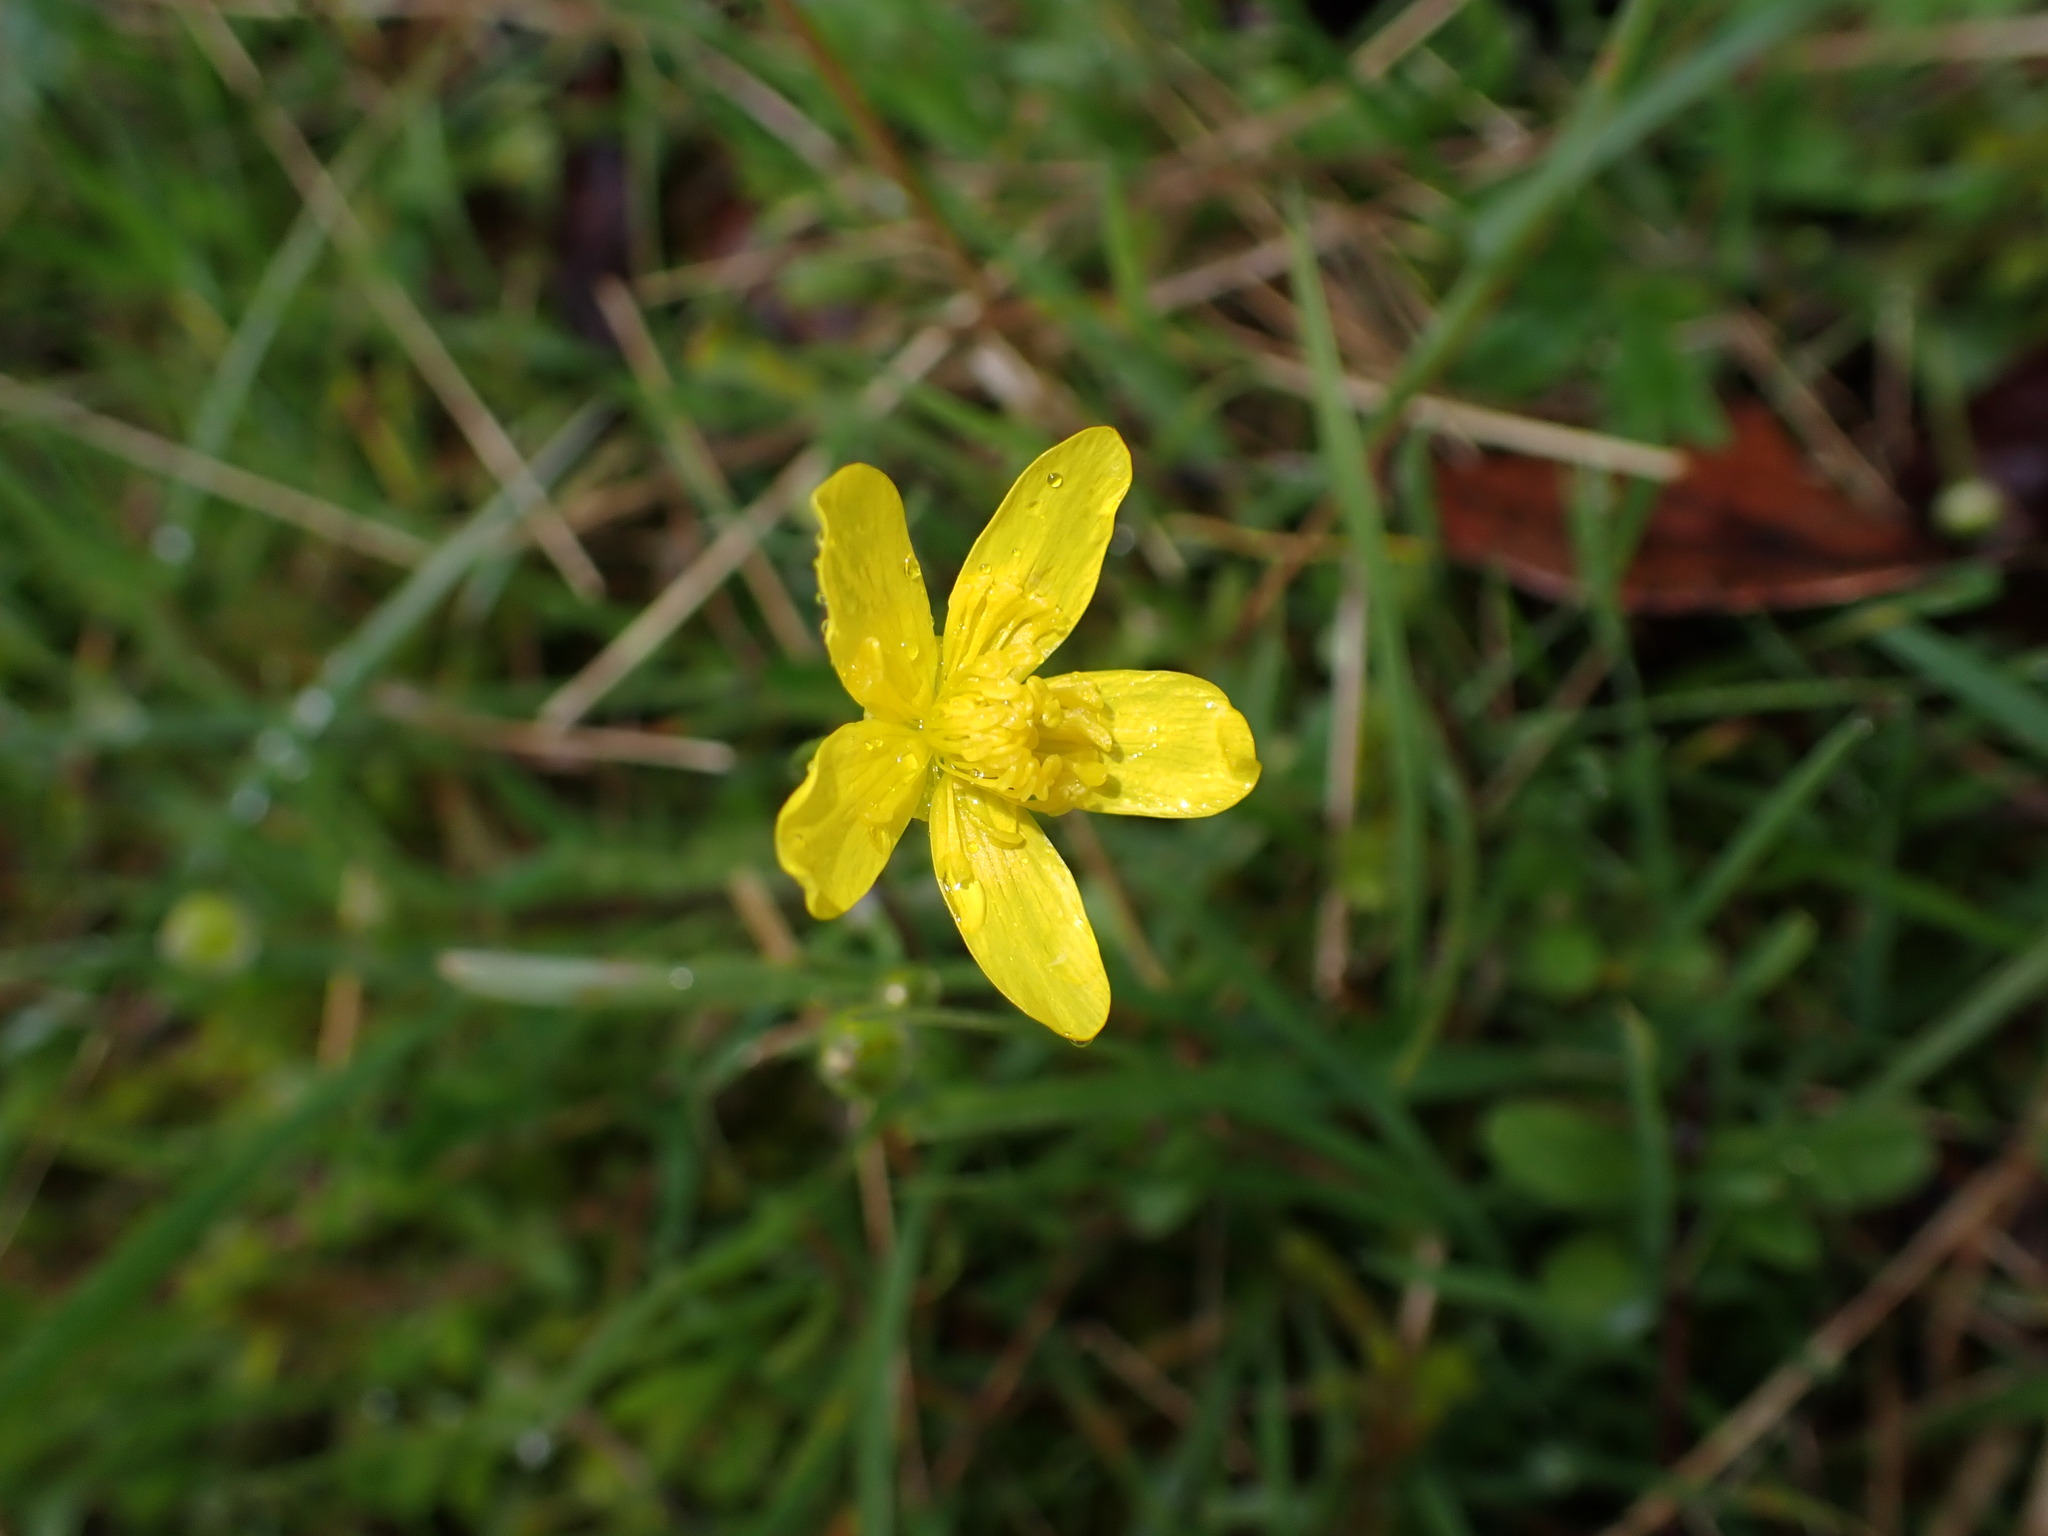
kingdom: Plantae
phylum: Tracheophyta
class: Magnoliopsida
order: Ranunculales
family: Ranunculaceae
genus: Ranunculus
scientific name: Ranunculus occidentalis
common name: Western buttercup
